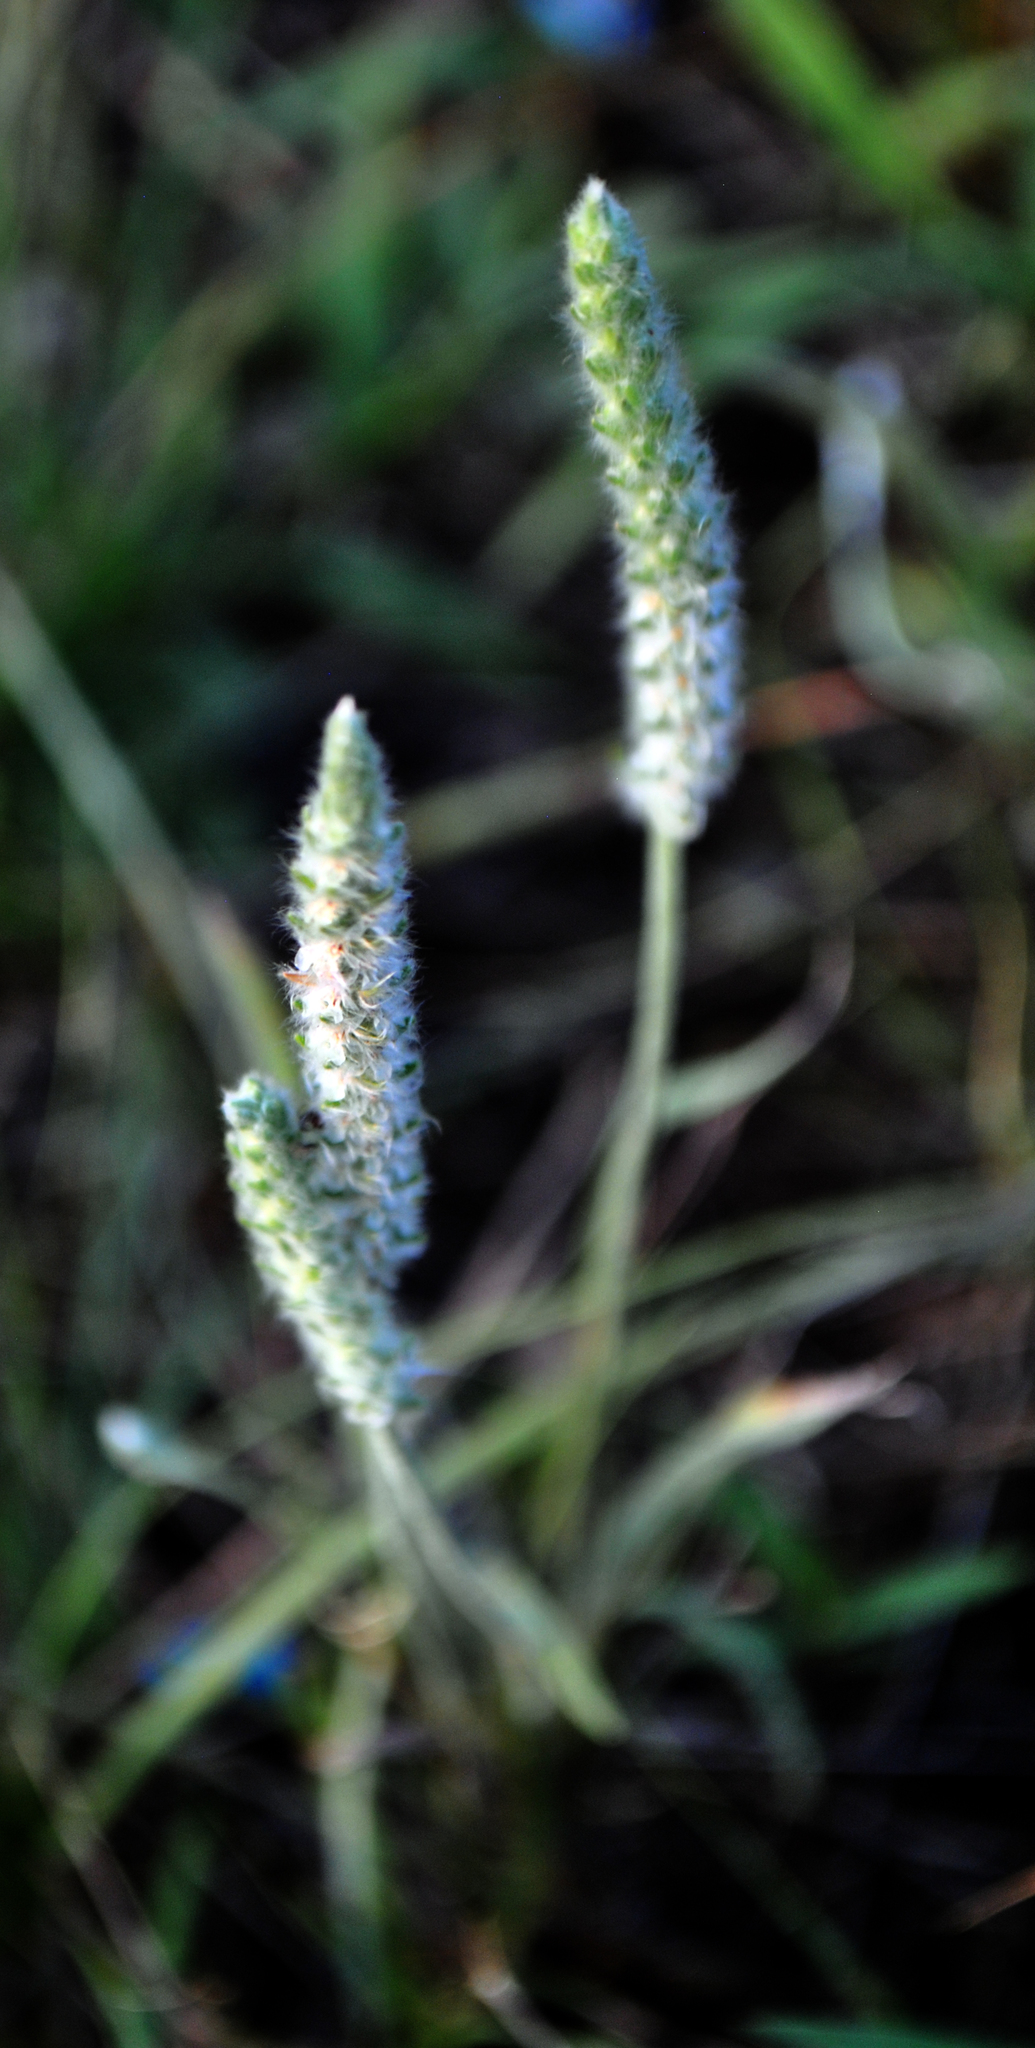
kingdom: Plantae
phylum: Tracheophyta
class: Magnoliopsida
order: Lamiales
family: Plantaginaceae
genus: Plantago
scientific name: Plantago patagonica
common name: Patagonia indian-wheat
